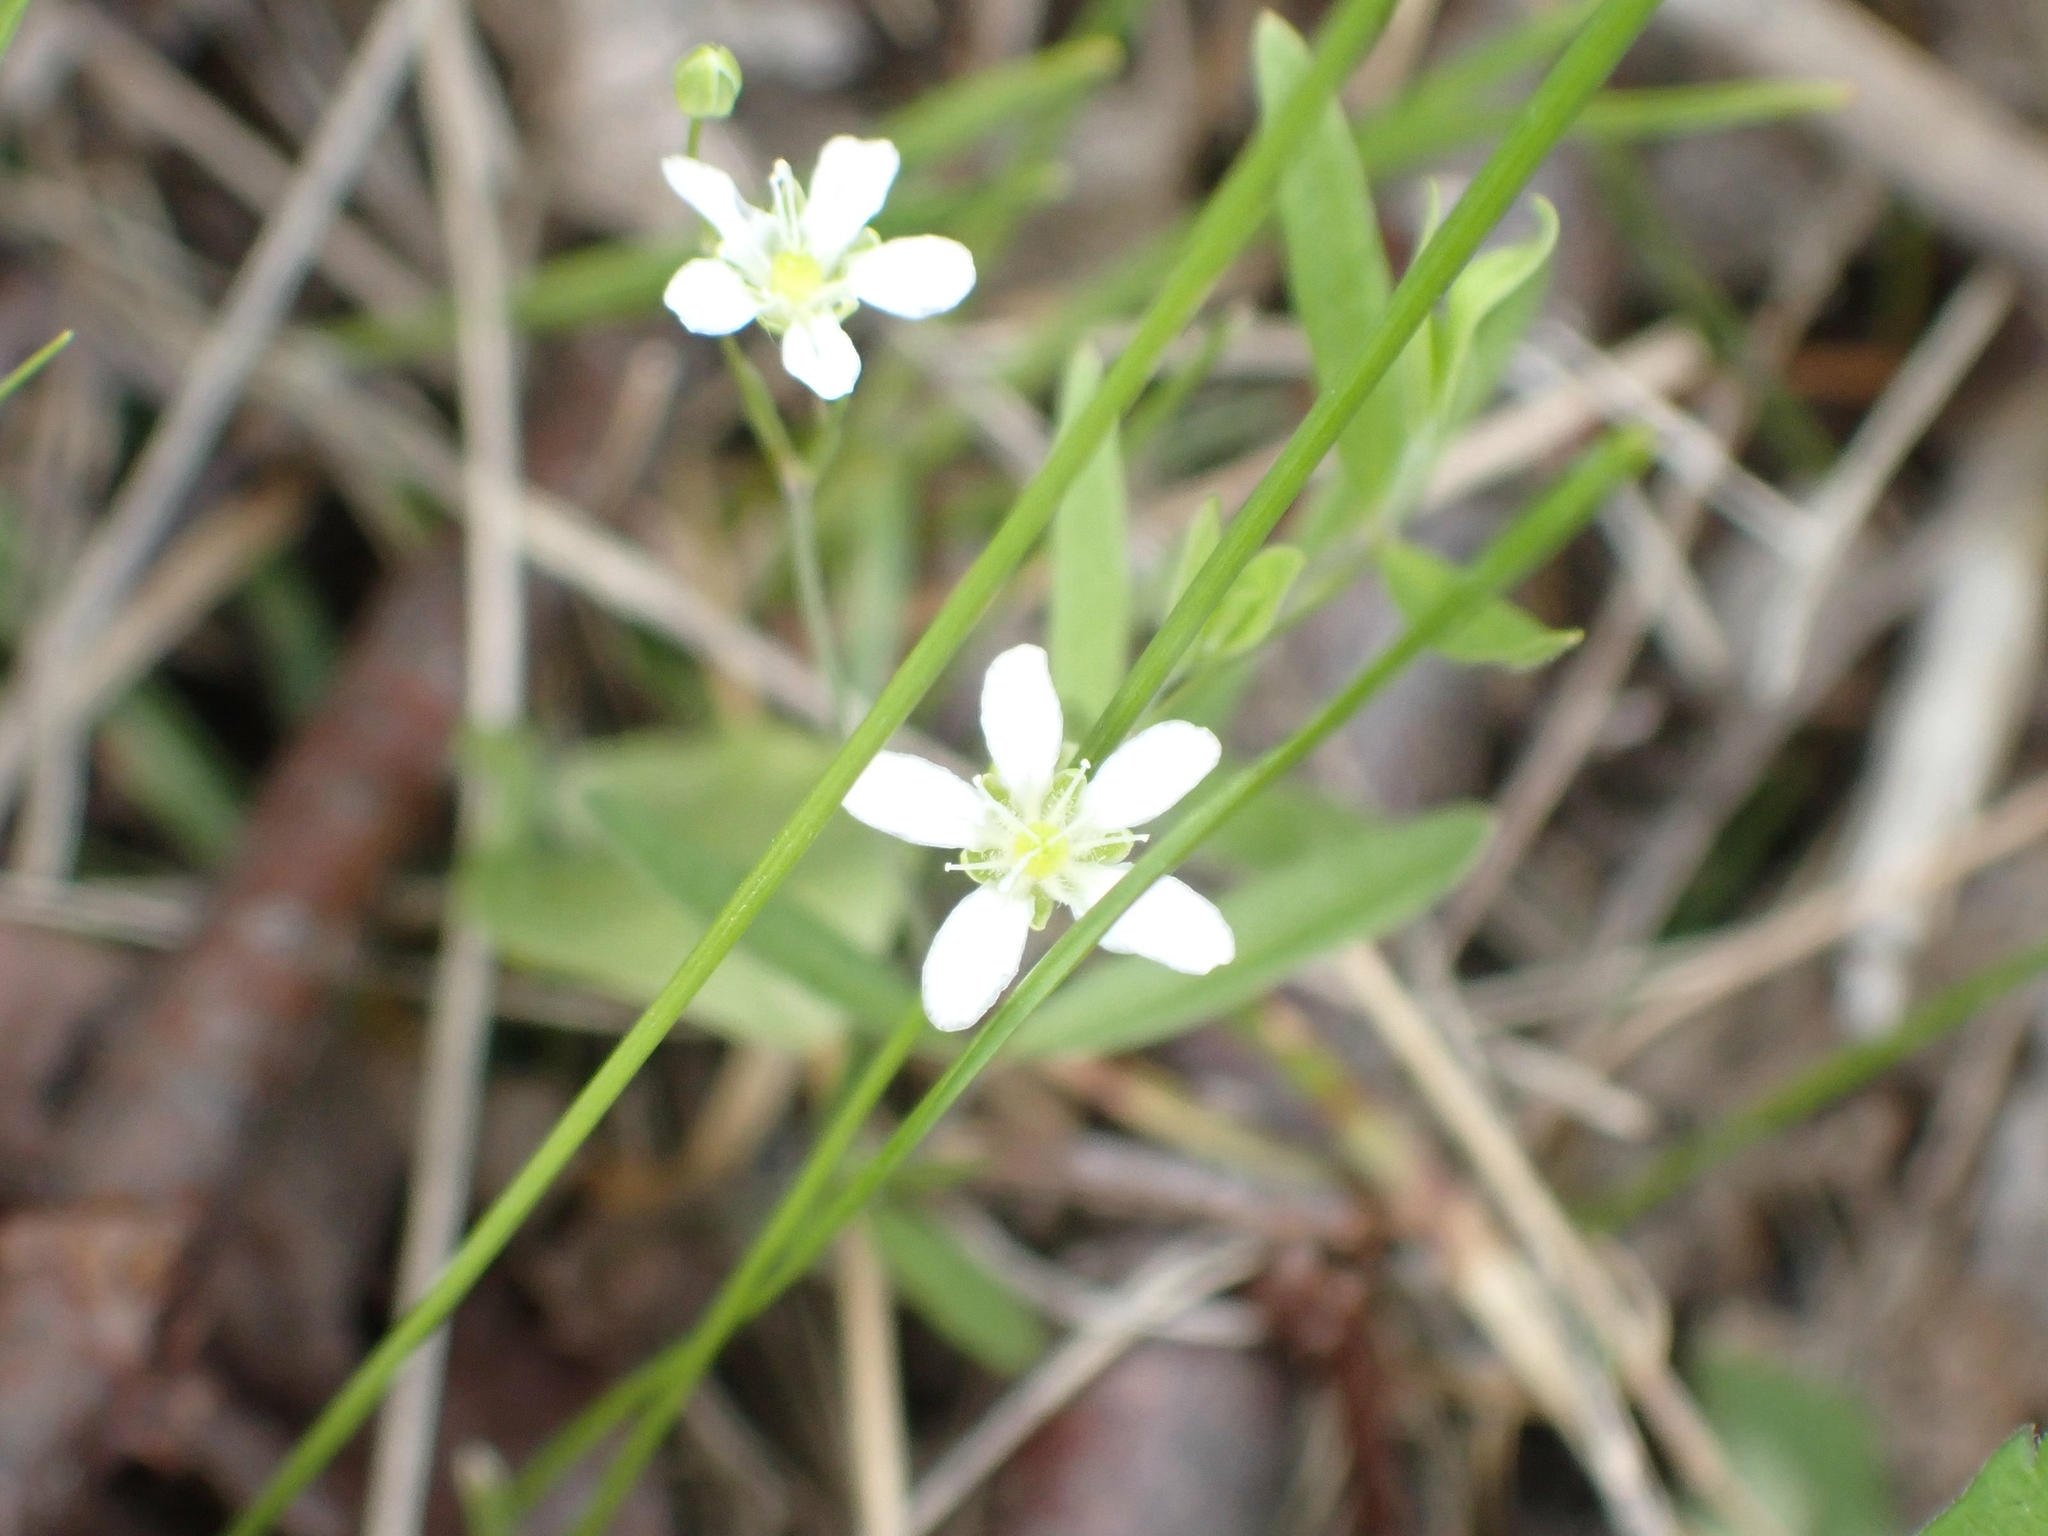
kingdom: Plantae
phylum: Tracheophyta
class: Magnoliopsida
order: Caryophyllales
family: Caryophyllaceae
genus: Moehringia
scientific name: Moehringia lateriflora
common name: Blunt-leaved sandwort
